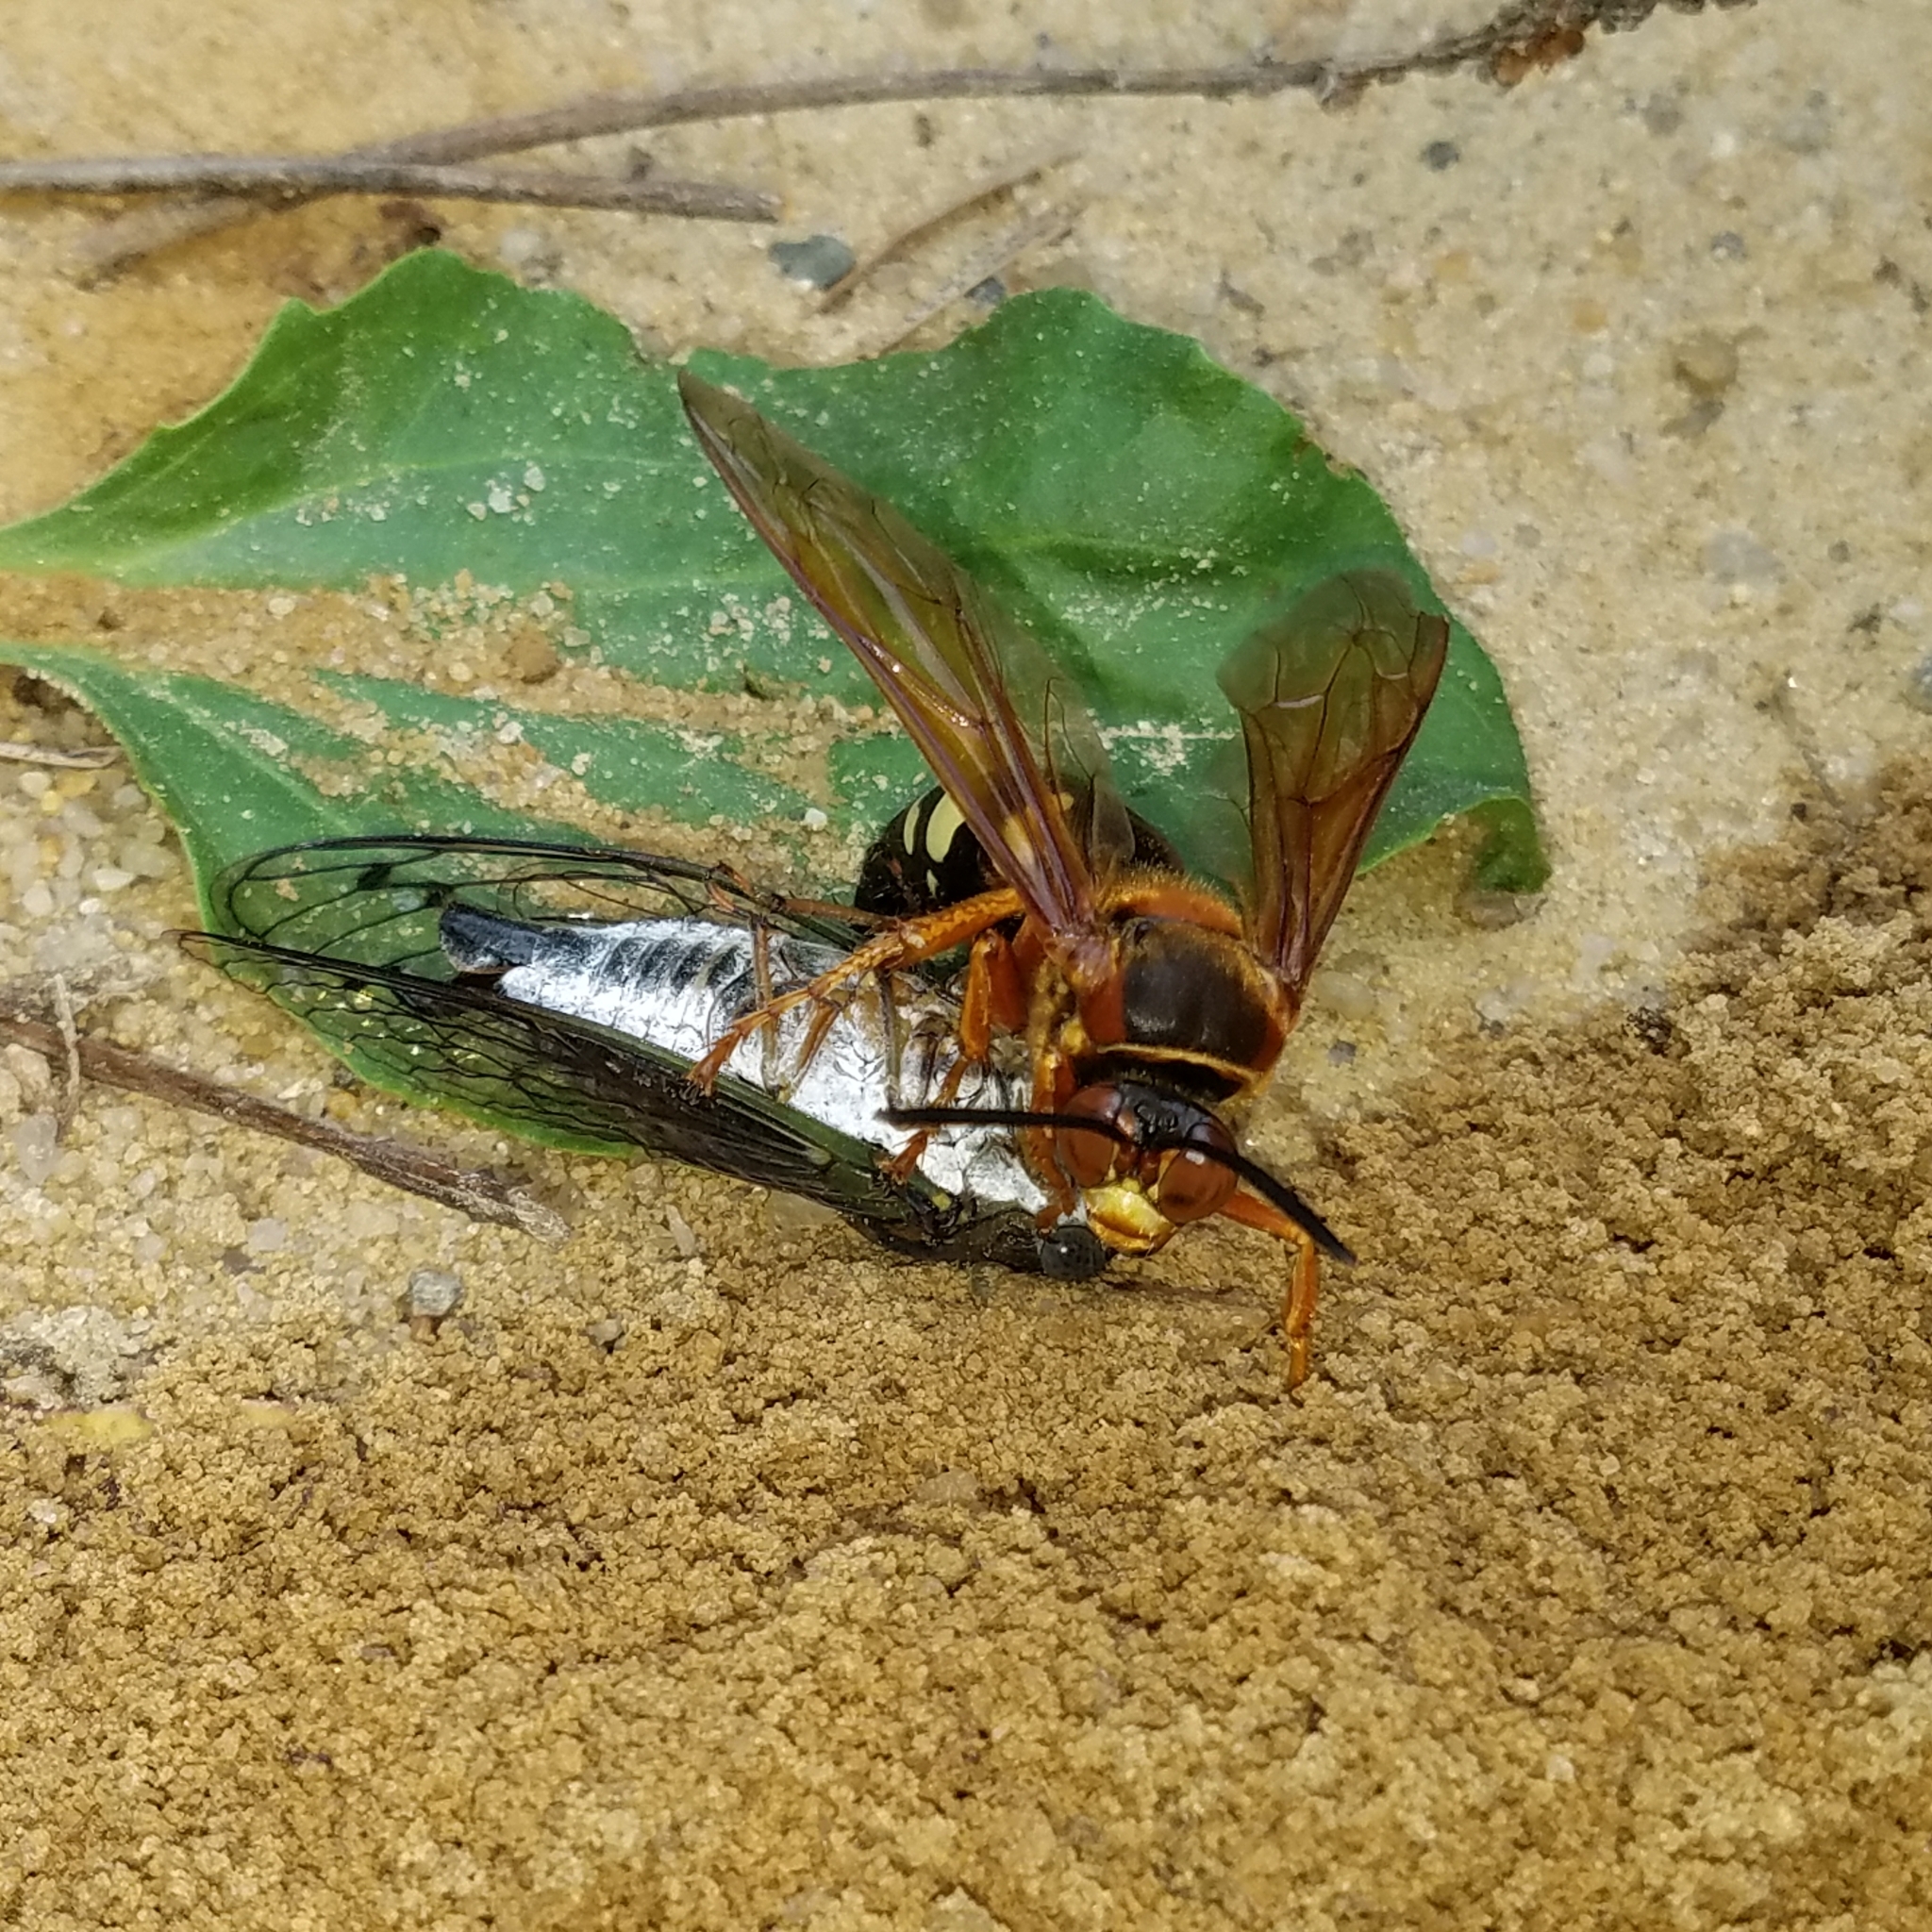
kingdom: Animalia
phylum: Arthropoda
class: Insecta
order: Hymenoptera
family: Crabronidae
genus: Sphecius
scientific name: Sphecius speciosus
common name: Cicada killer
